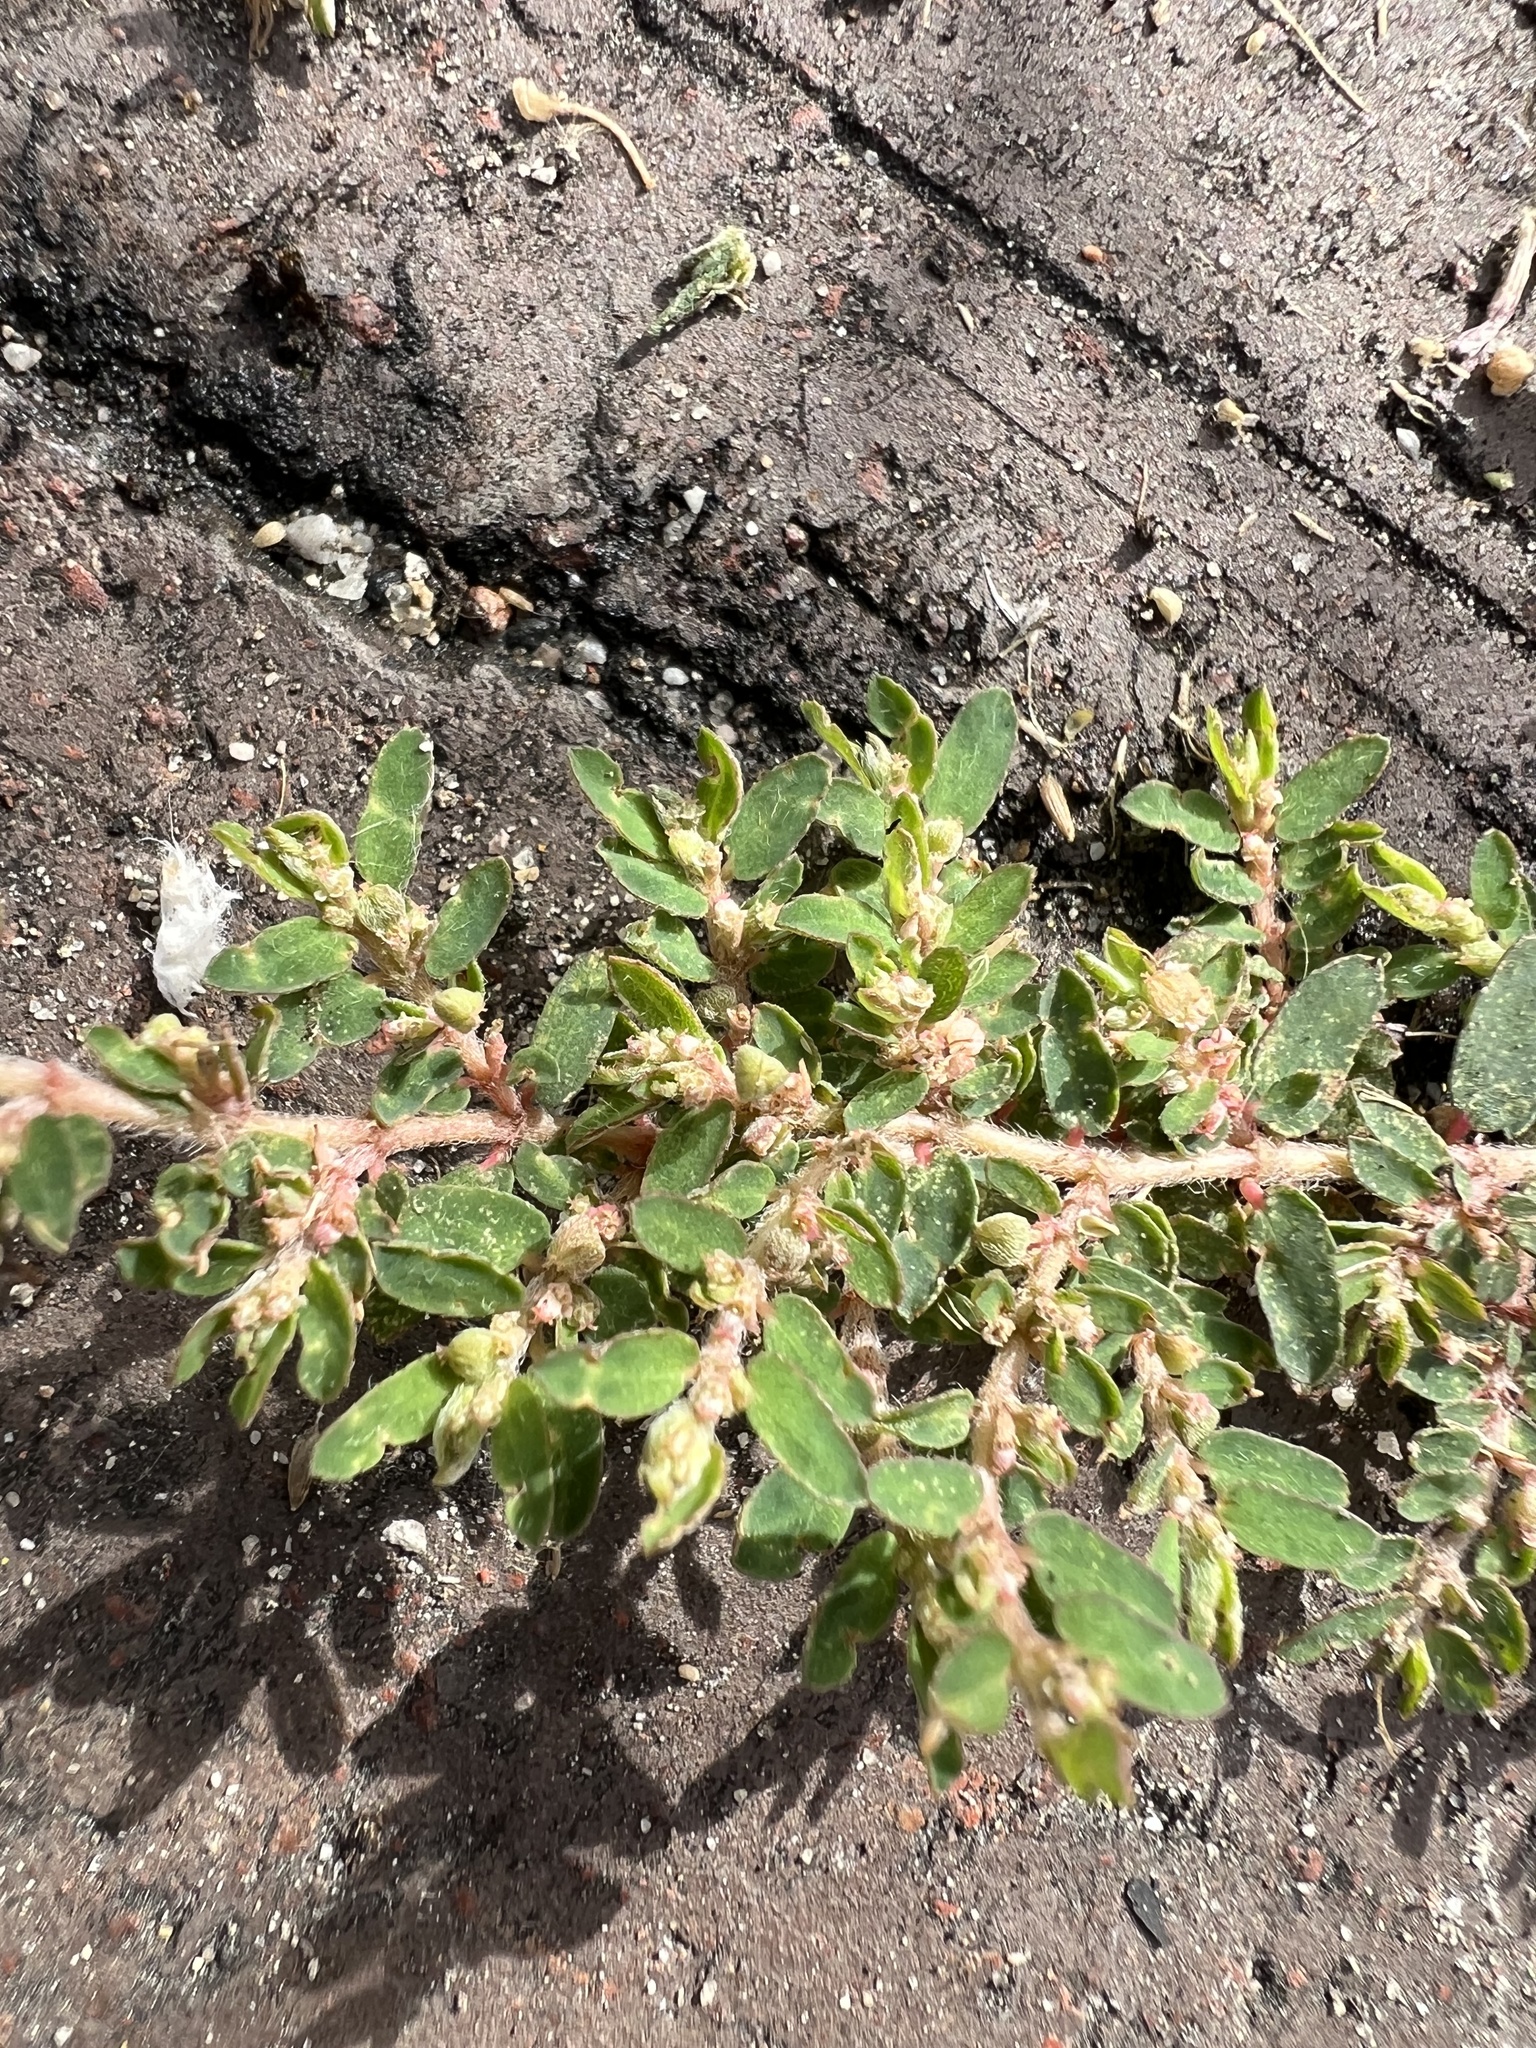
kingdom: Plantae
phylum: Tracheophyta
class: Magnoliopsida
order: Malpighiales
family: Euphorbiaceae
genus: Euphorbia
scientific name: Euphorbia maculata
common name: Spotted spurge
